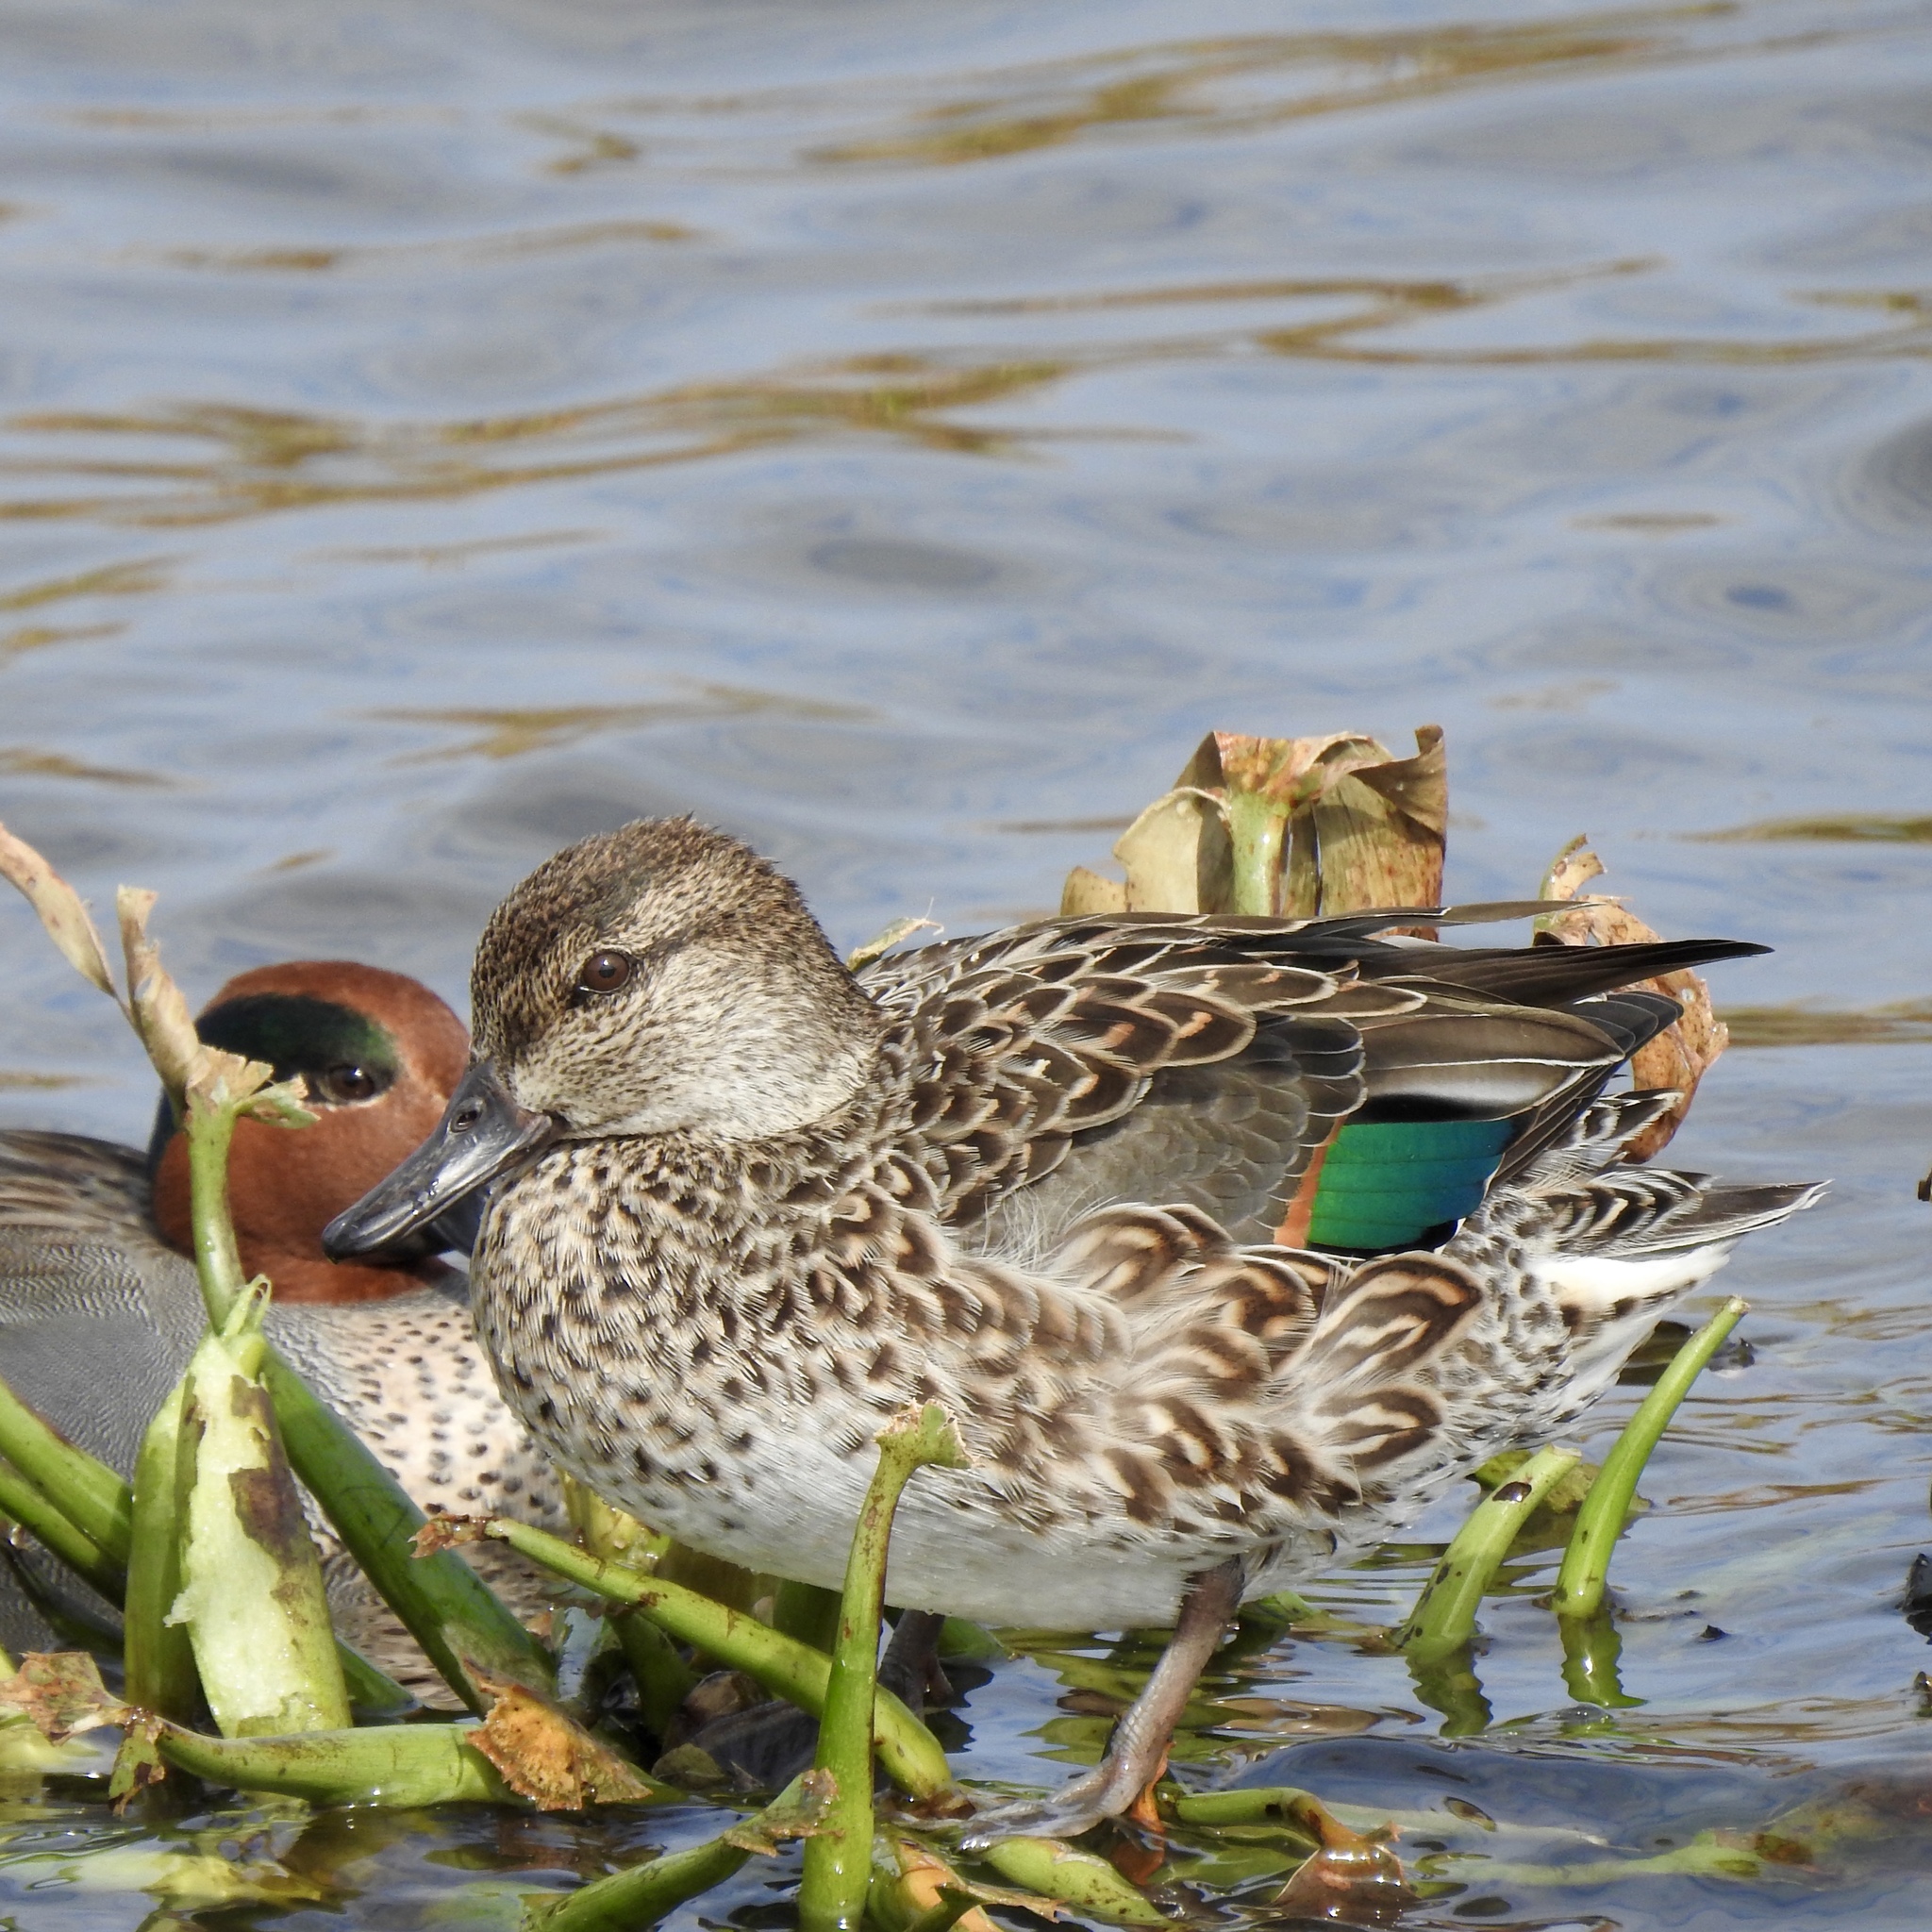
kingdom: Animalia
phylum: Chordata
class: Aves
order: Anseriformes
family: Anatidae
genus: Anas
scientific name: Anas crecca
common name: Eurasian teal
